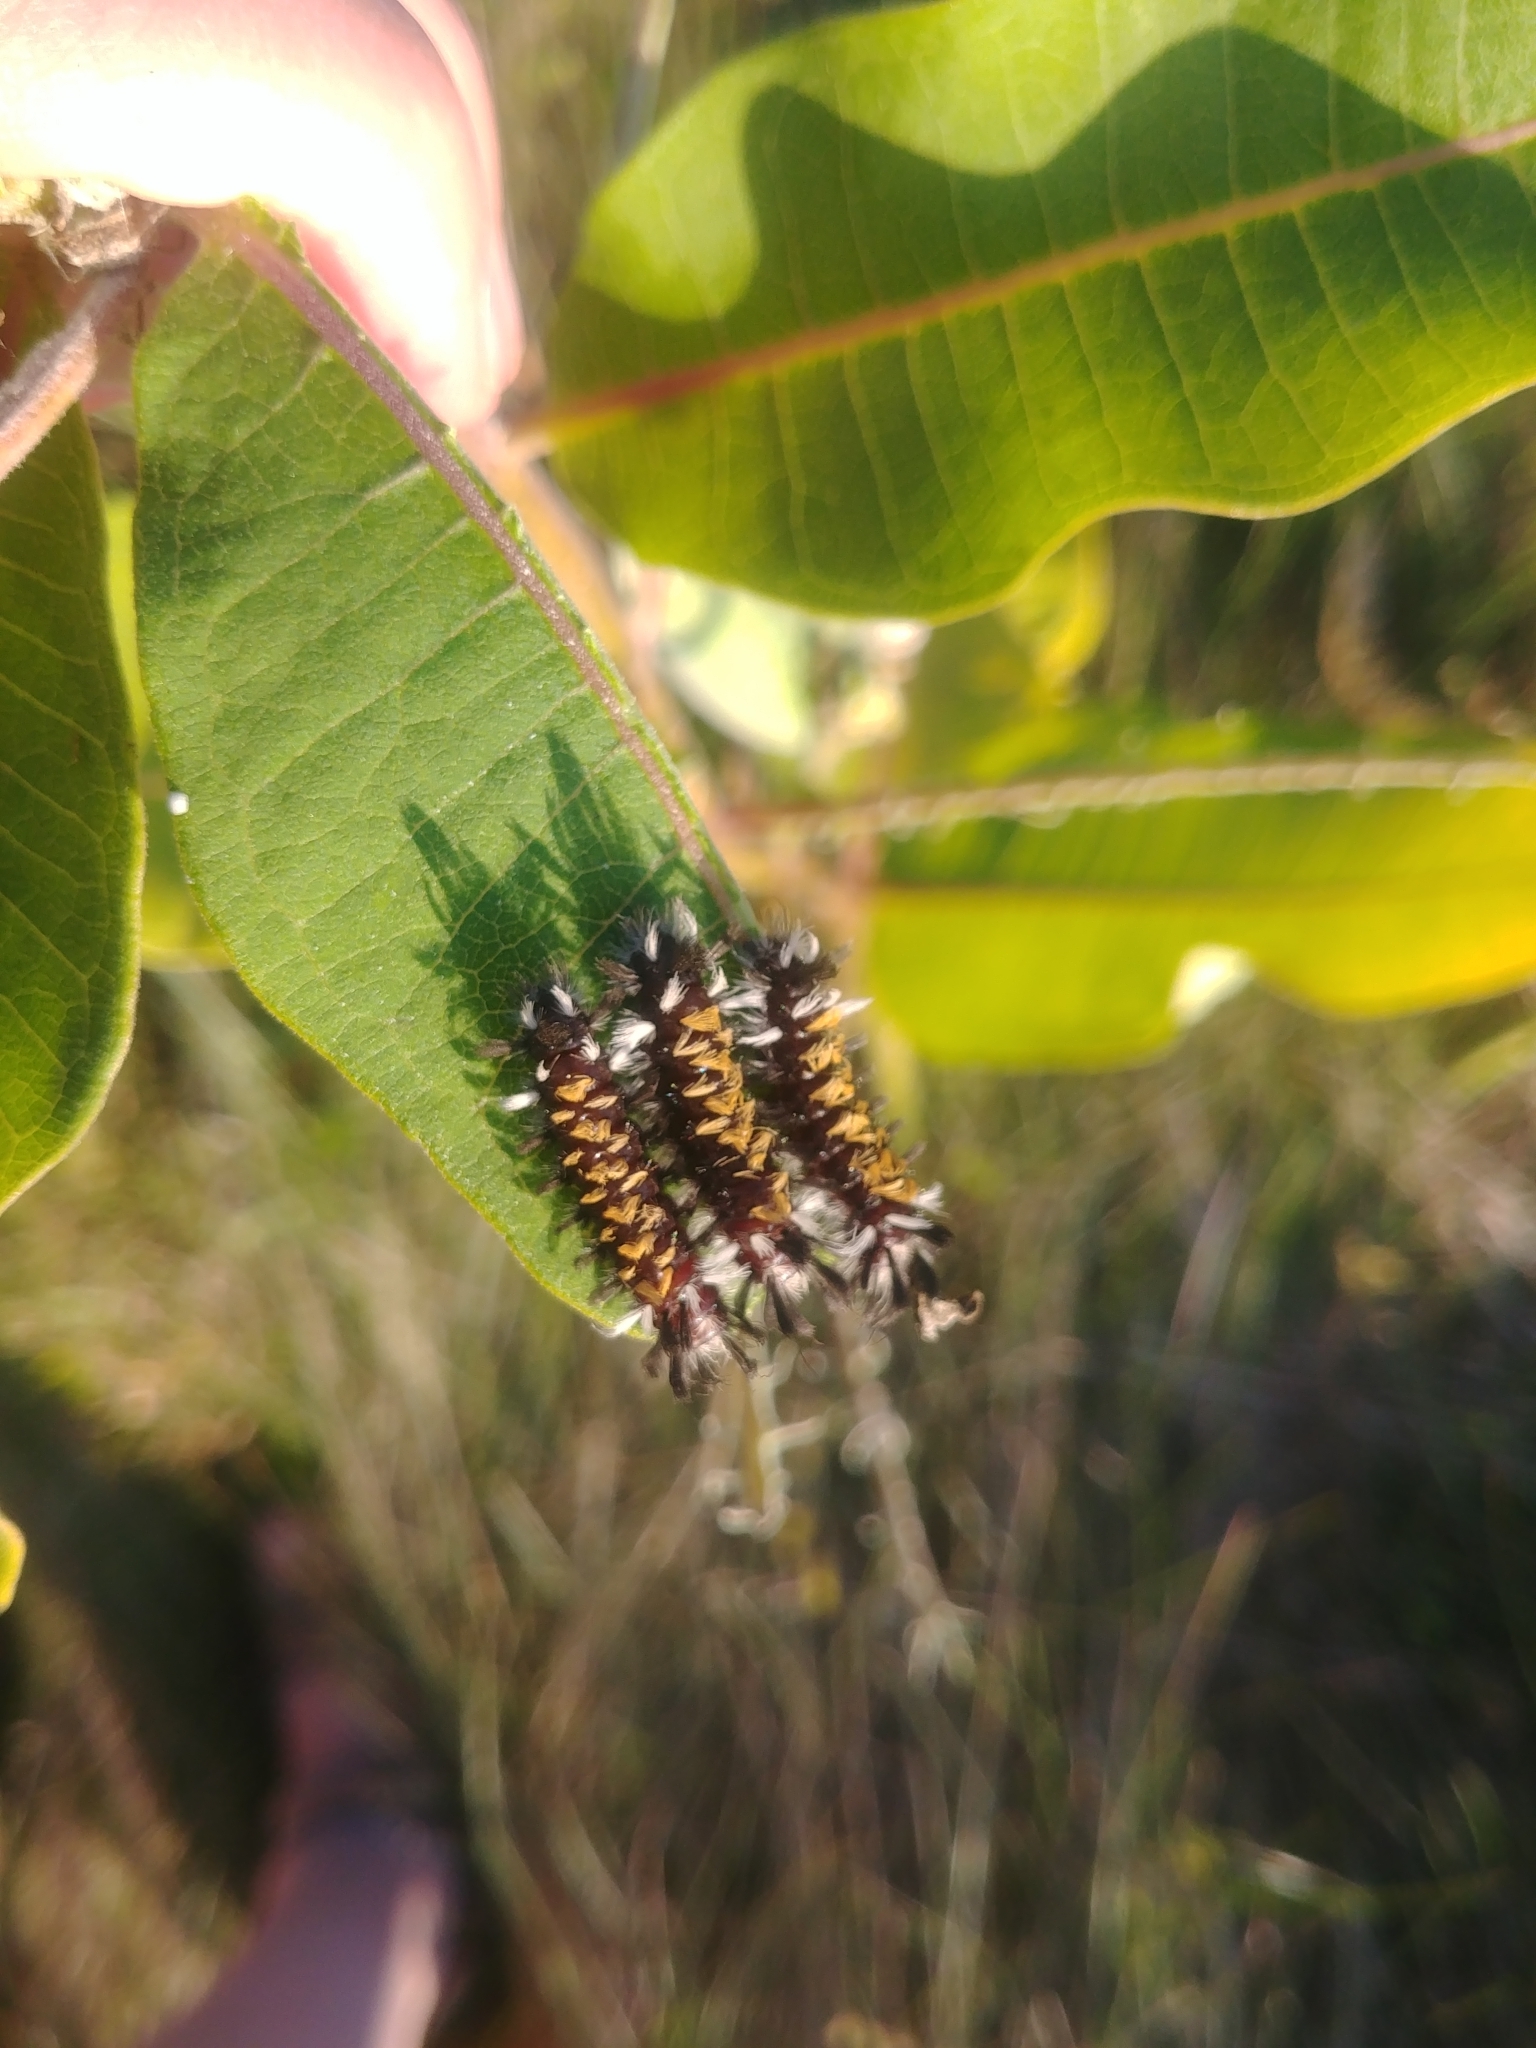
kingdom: Animalia
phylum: Arthropoda
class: Insecta
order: Lepidoptera
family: Erebidae
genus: Euchaetes
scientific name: Euchaetes egle
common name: Milkweed tussock moth
